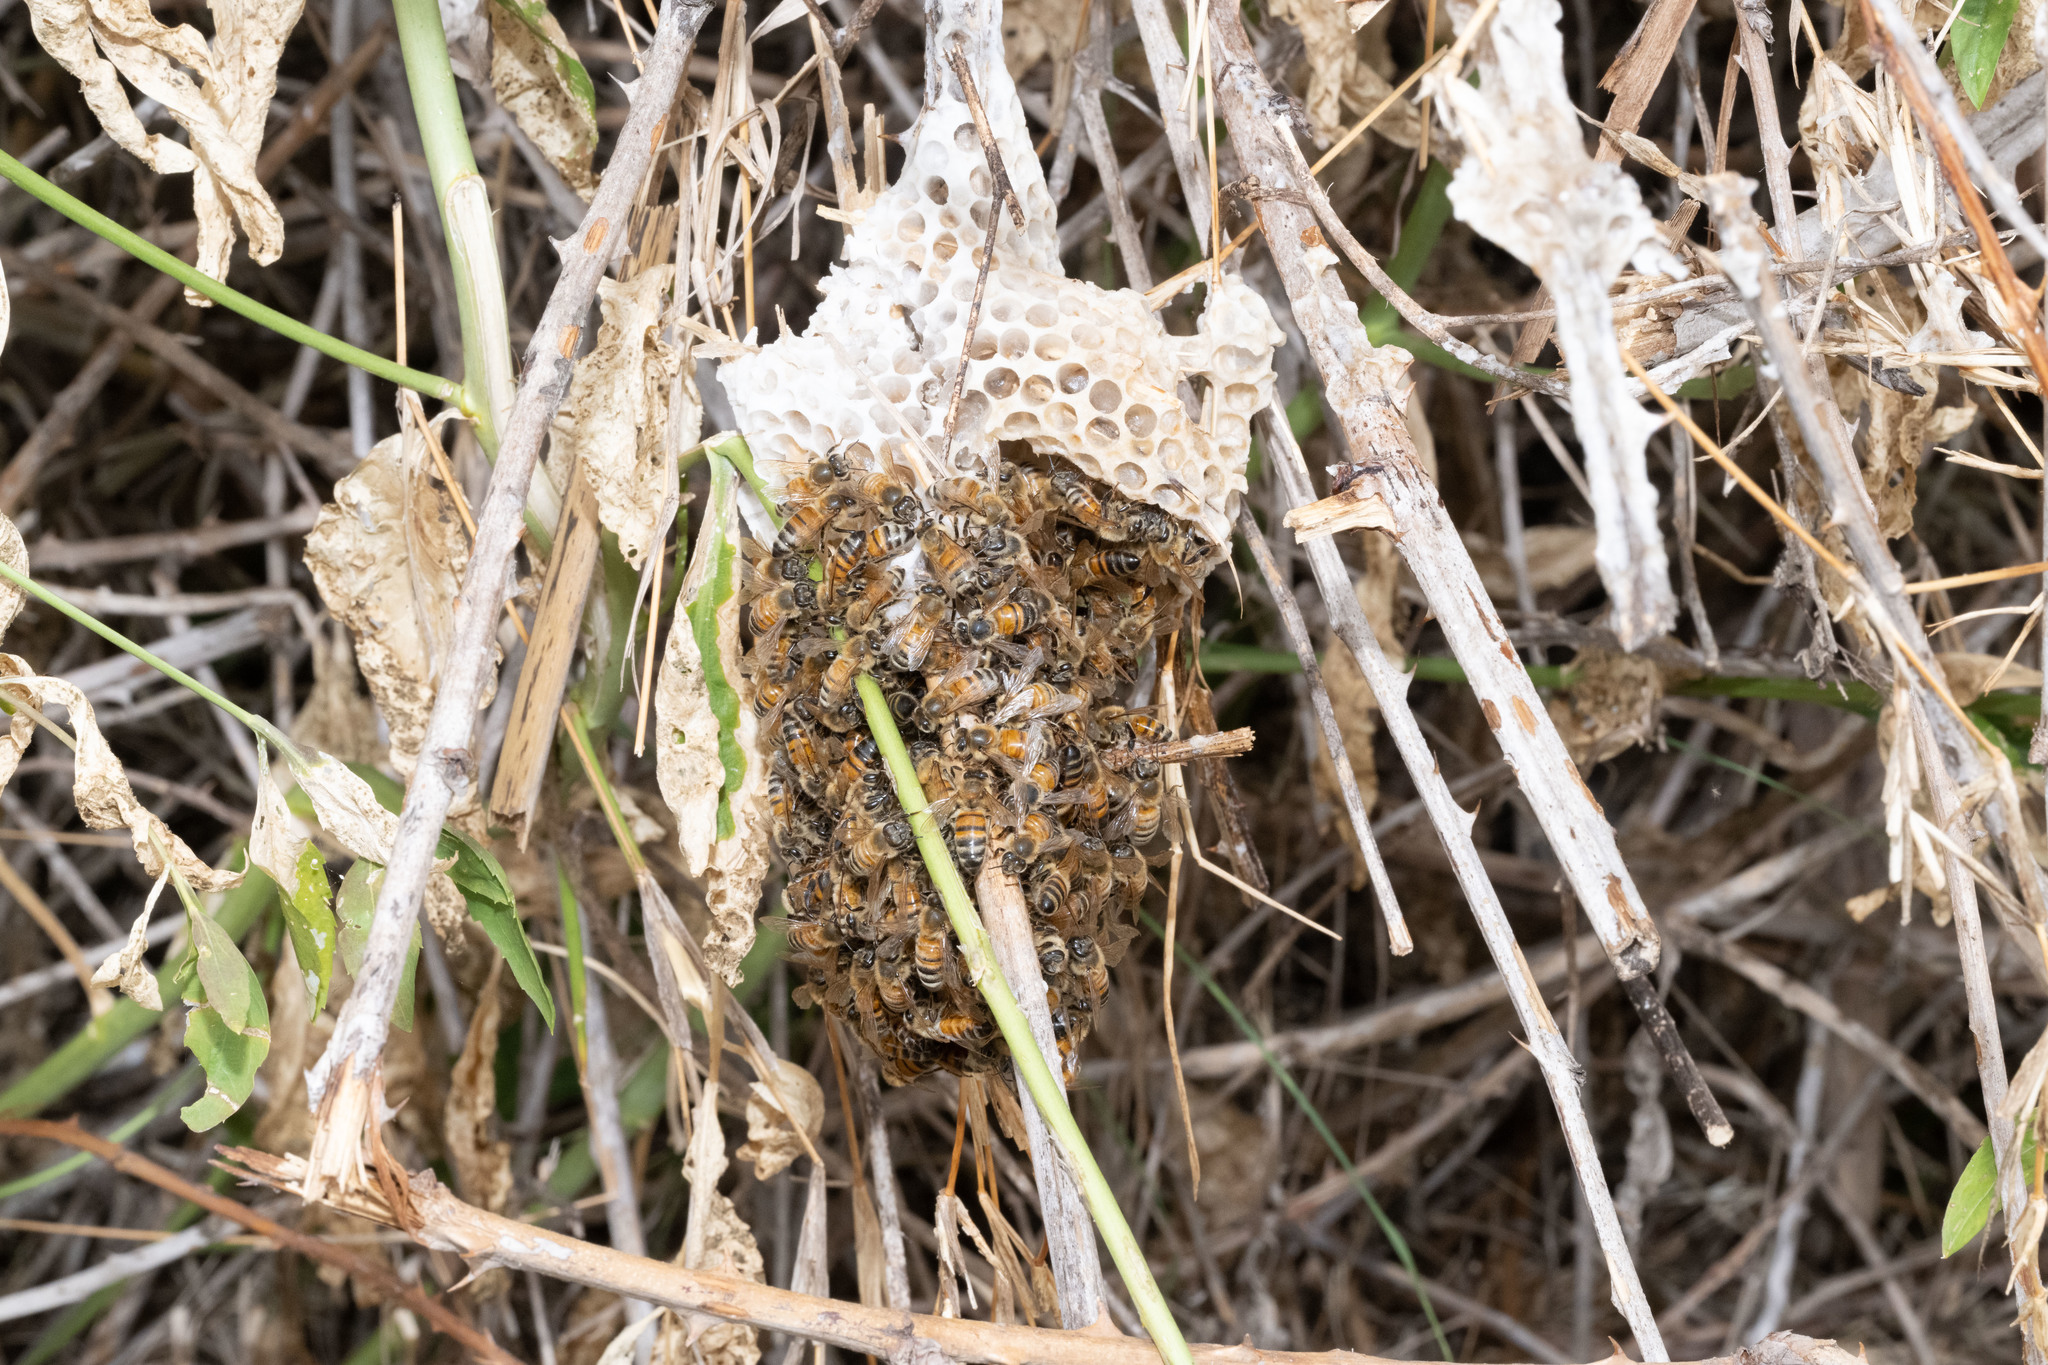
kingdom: Animalia
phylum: Arthropoda
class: Insecta
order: Hymenoptera
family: Apidae
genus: Apis
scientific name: Apis mellifera
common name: Honey bee
